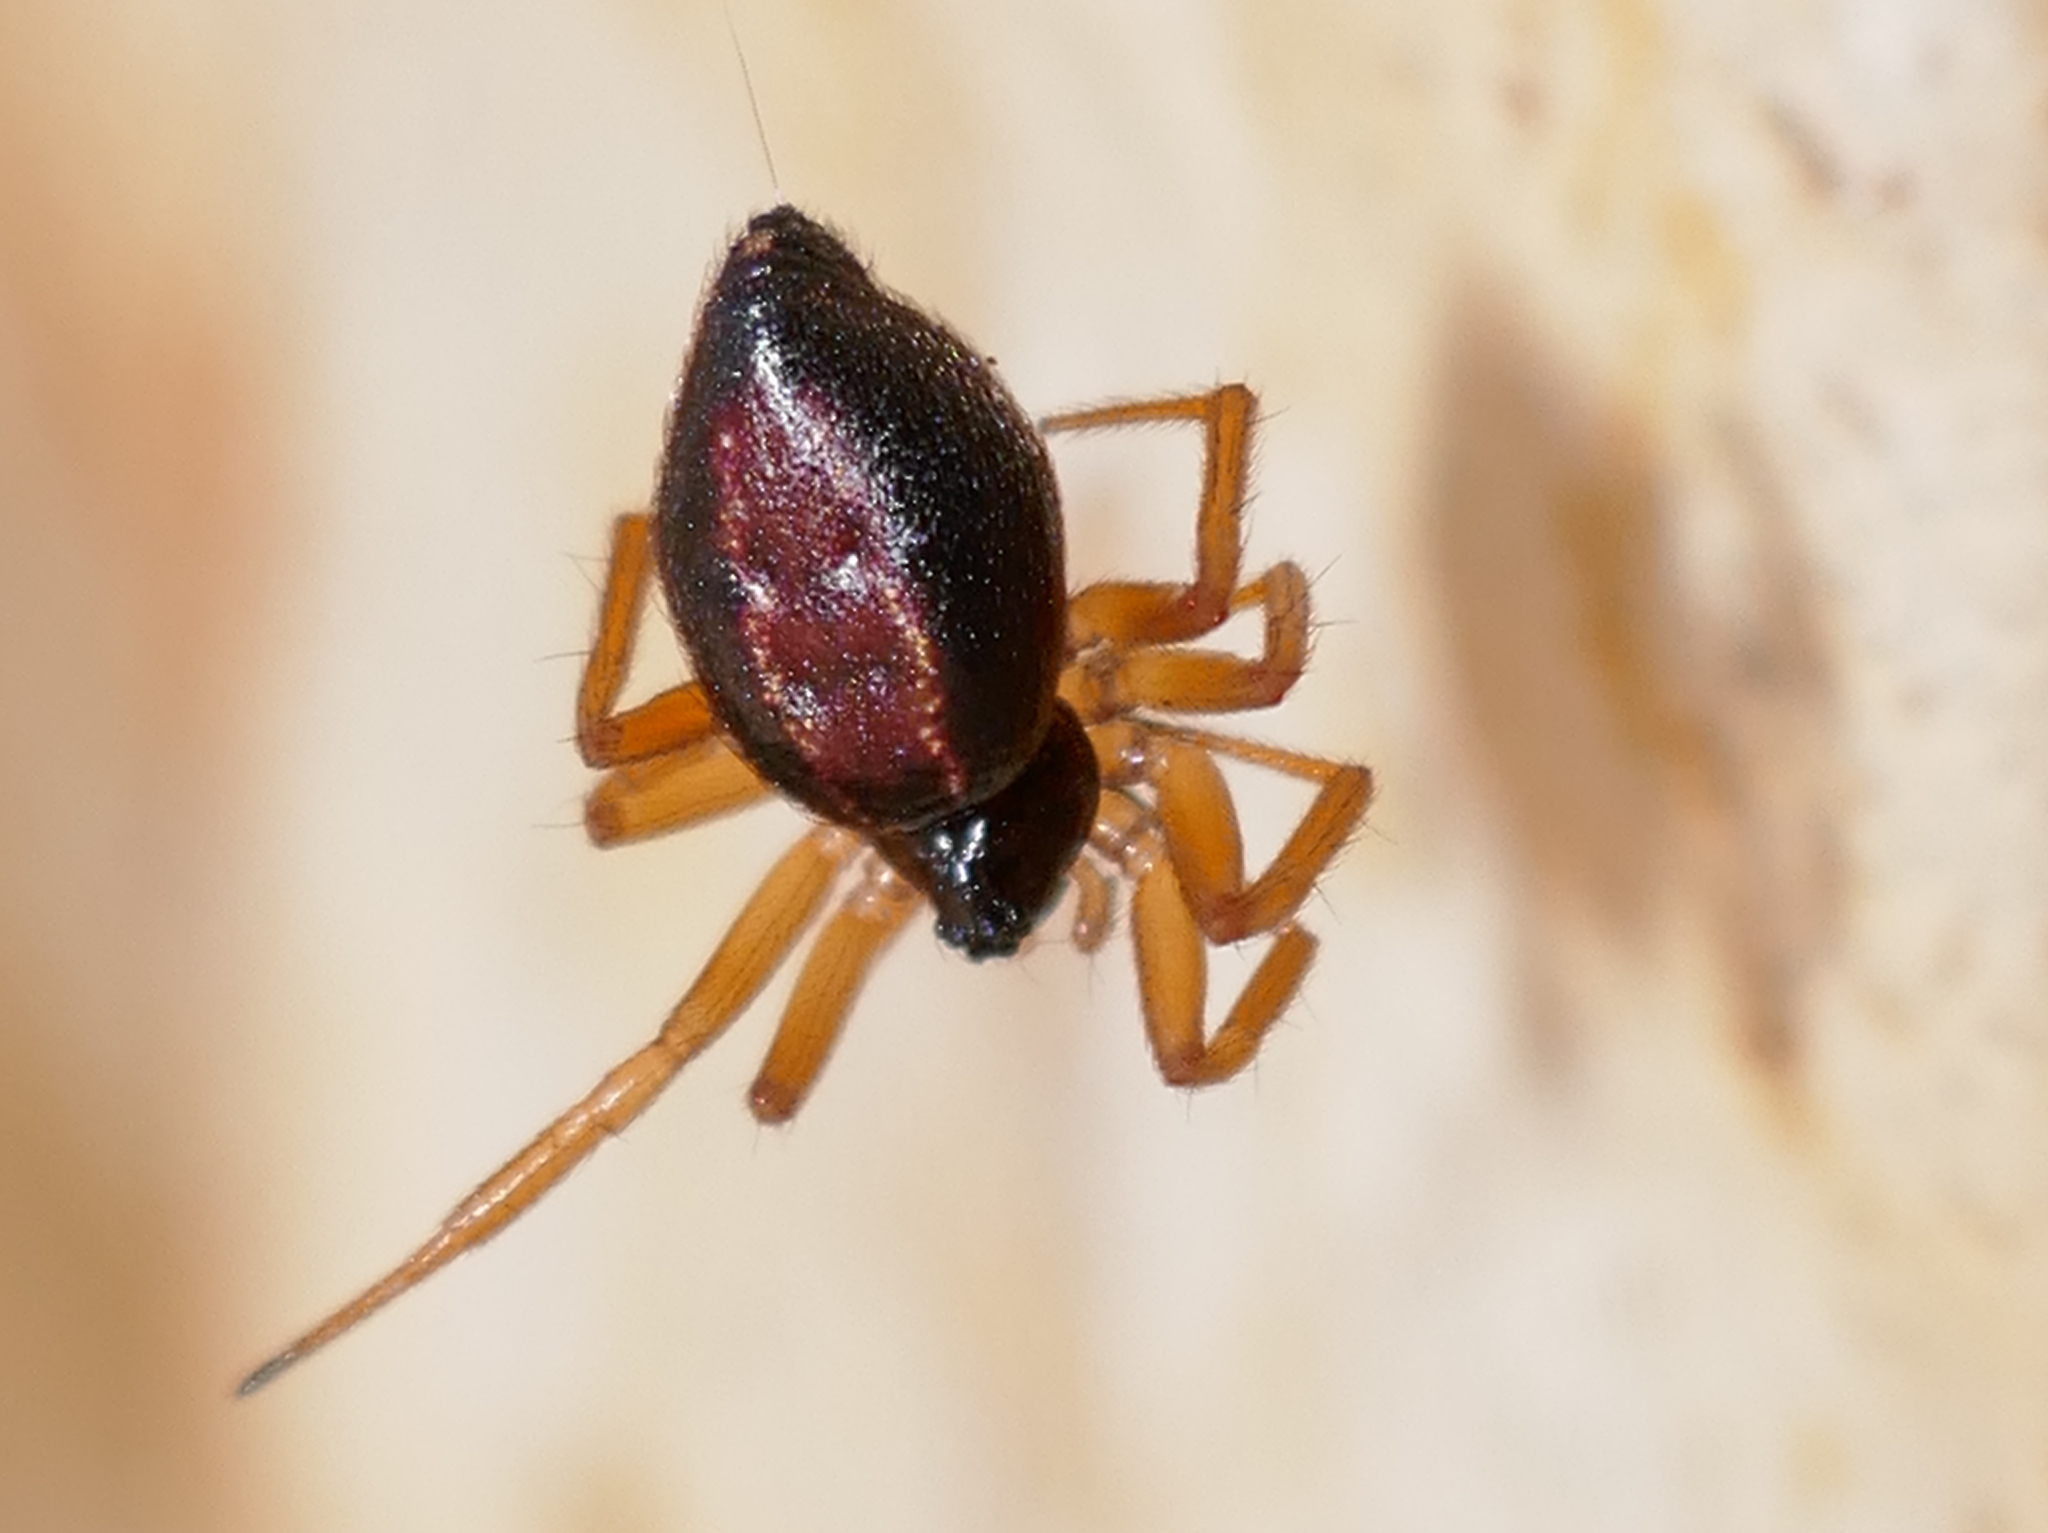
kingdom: Animalia
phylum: Arthropoda
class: Arachnida
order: Araneae
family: Theridiidae
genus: Euryopis
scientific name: Euryopis umbilicata
